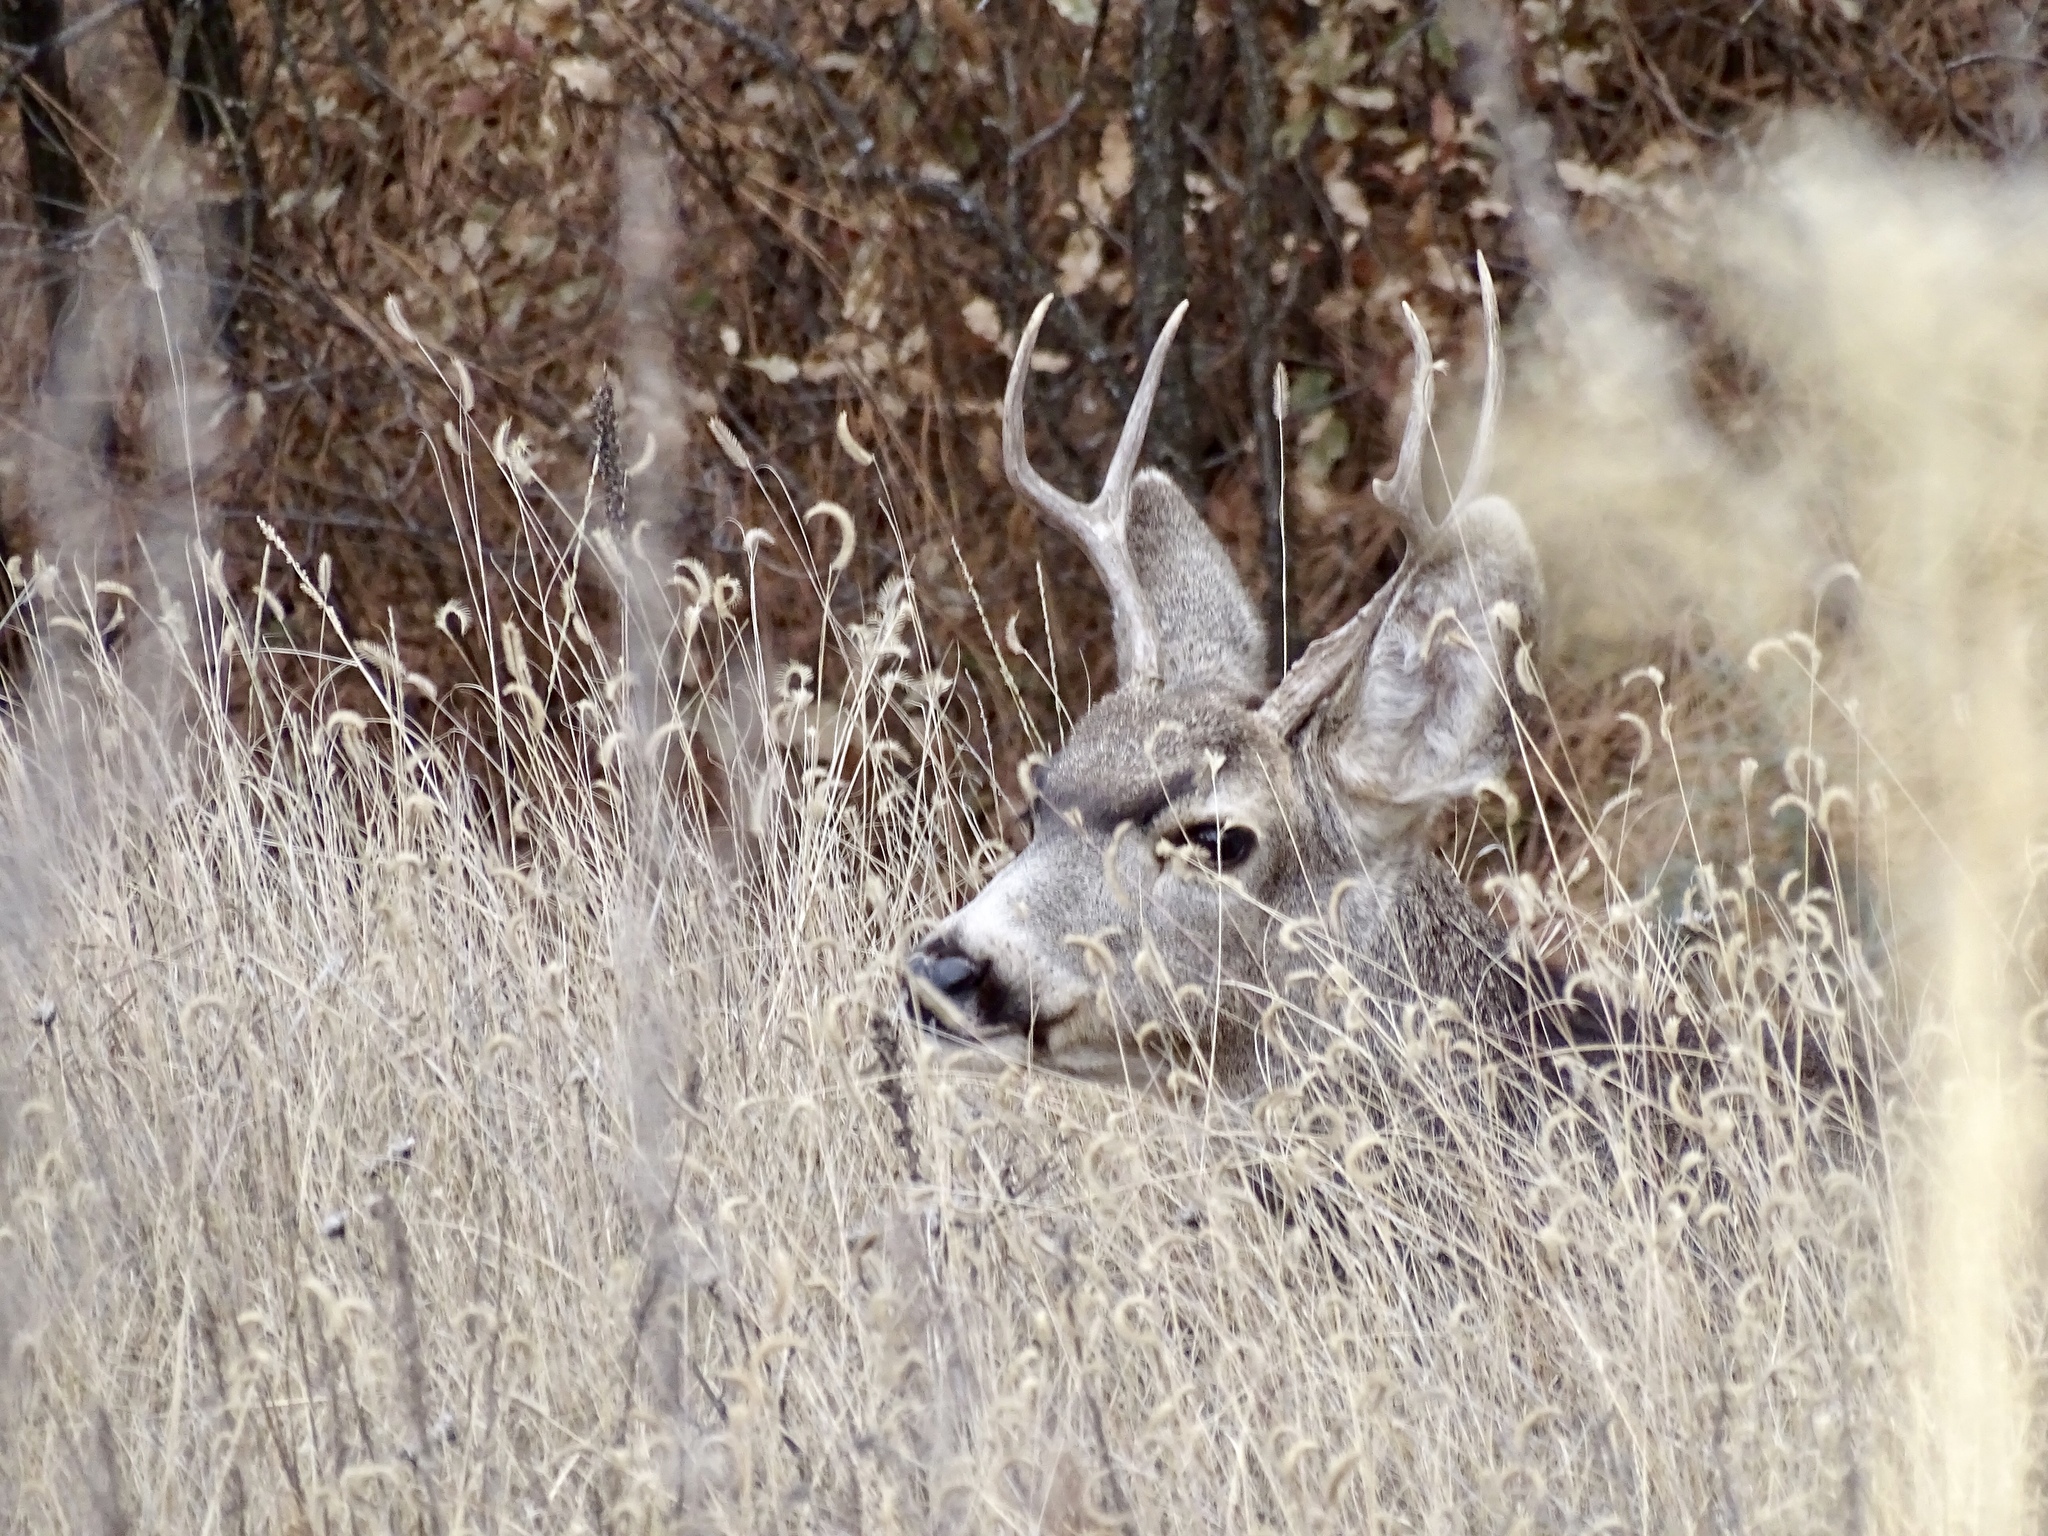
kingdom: Animalia
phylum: Chordata
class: Mammalia
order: Artiodactyla
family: Cervidae
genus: Odocoileus
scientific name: Odocoileus hemionus
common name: Mule deer
